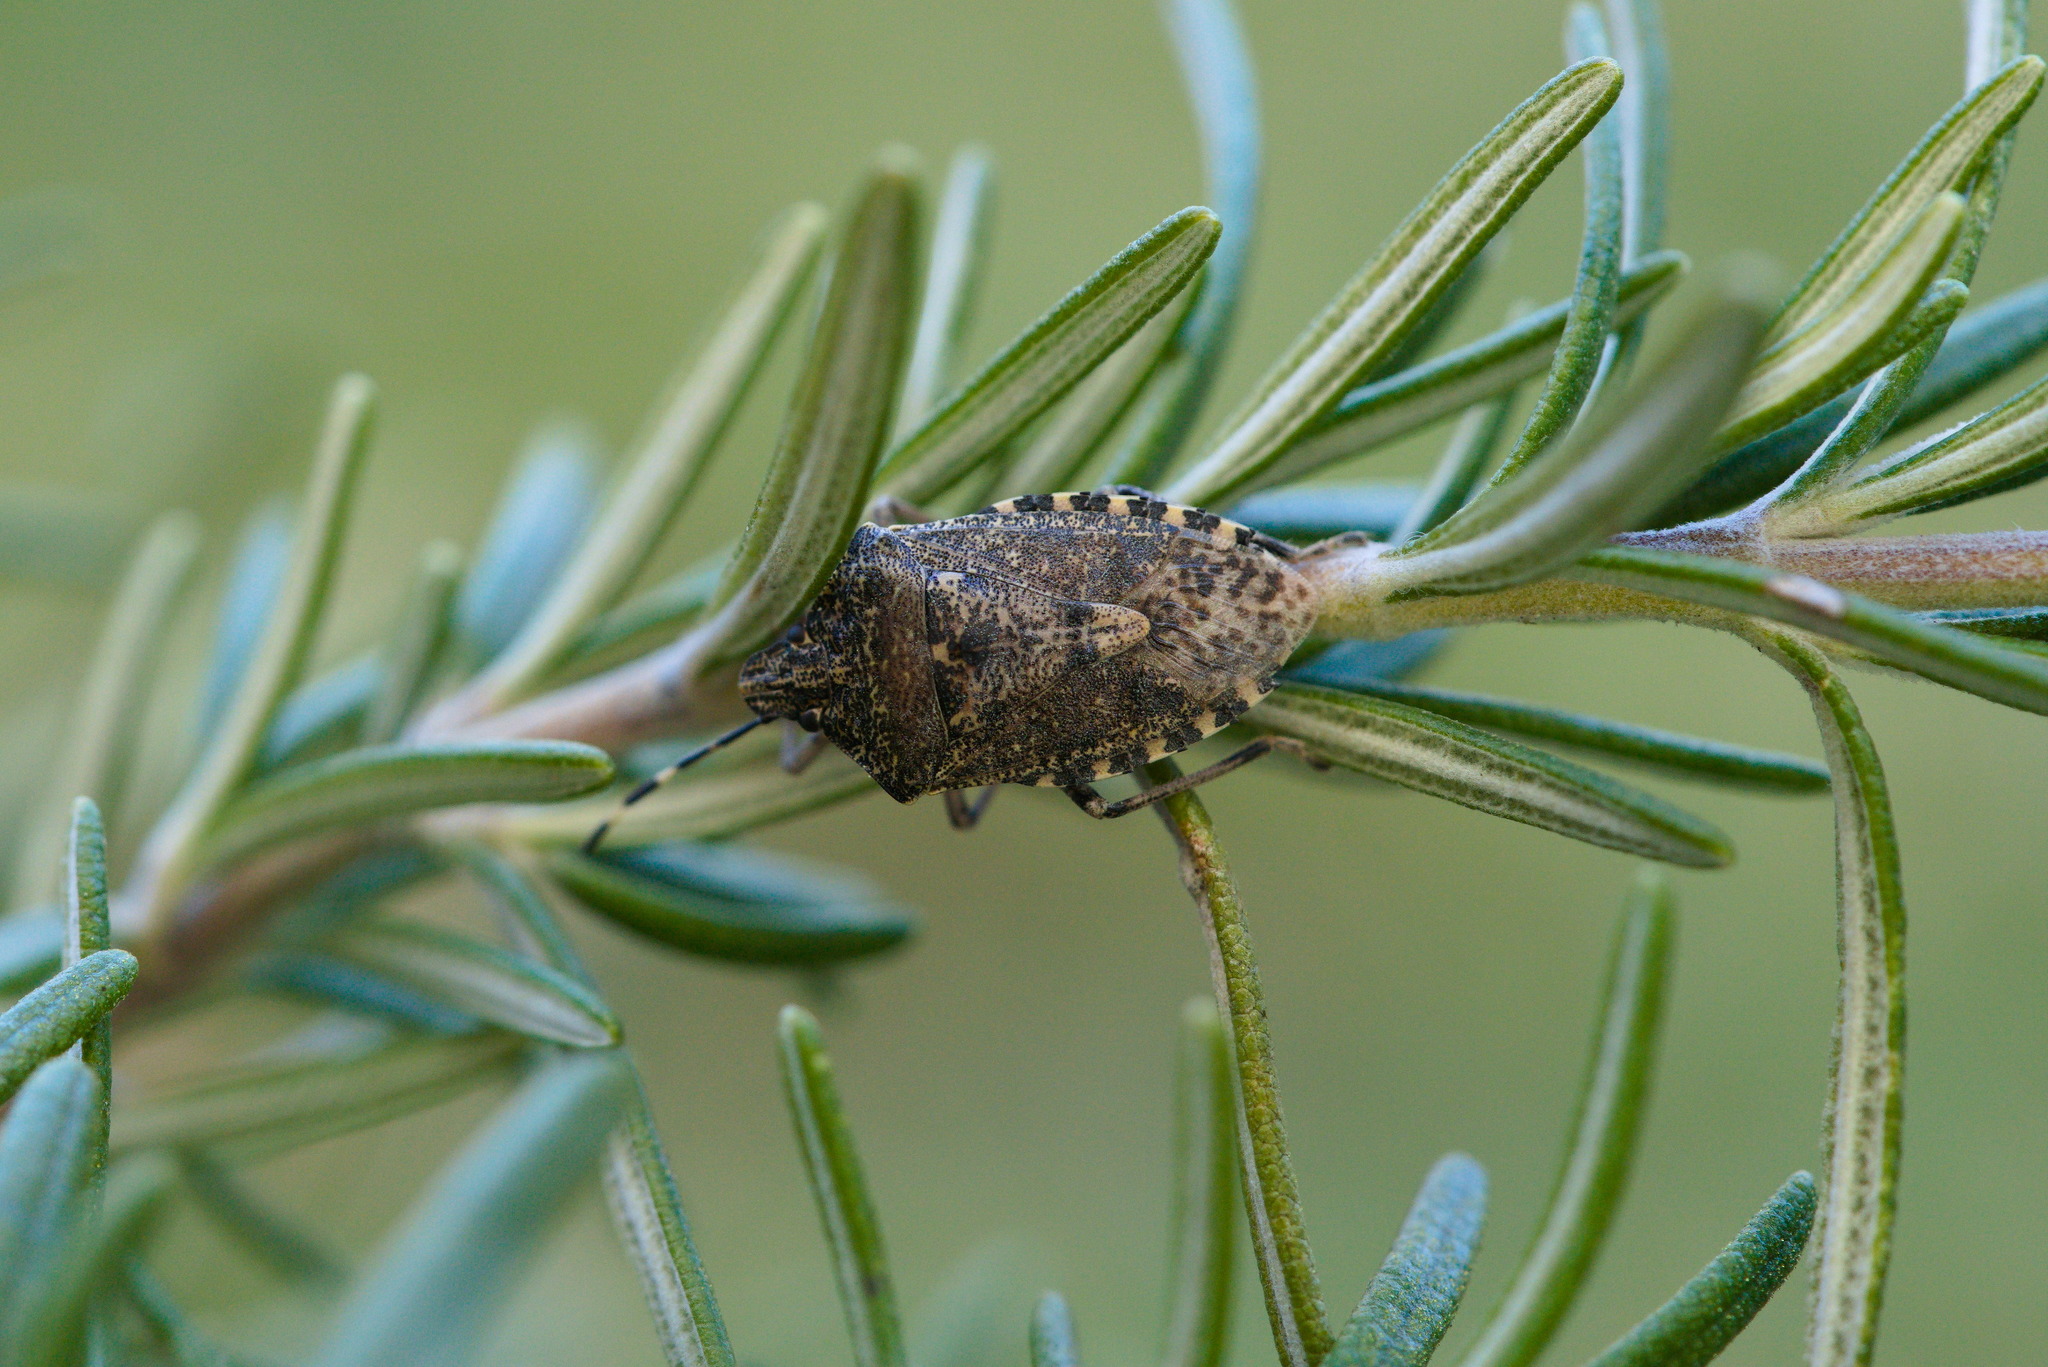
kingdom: Animalia
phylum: Arthropoda
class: Insecta
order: Hemiptera
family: Pentatomidae
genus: Rhaphigaster
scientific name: Rhaphigaster nebulosa
